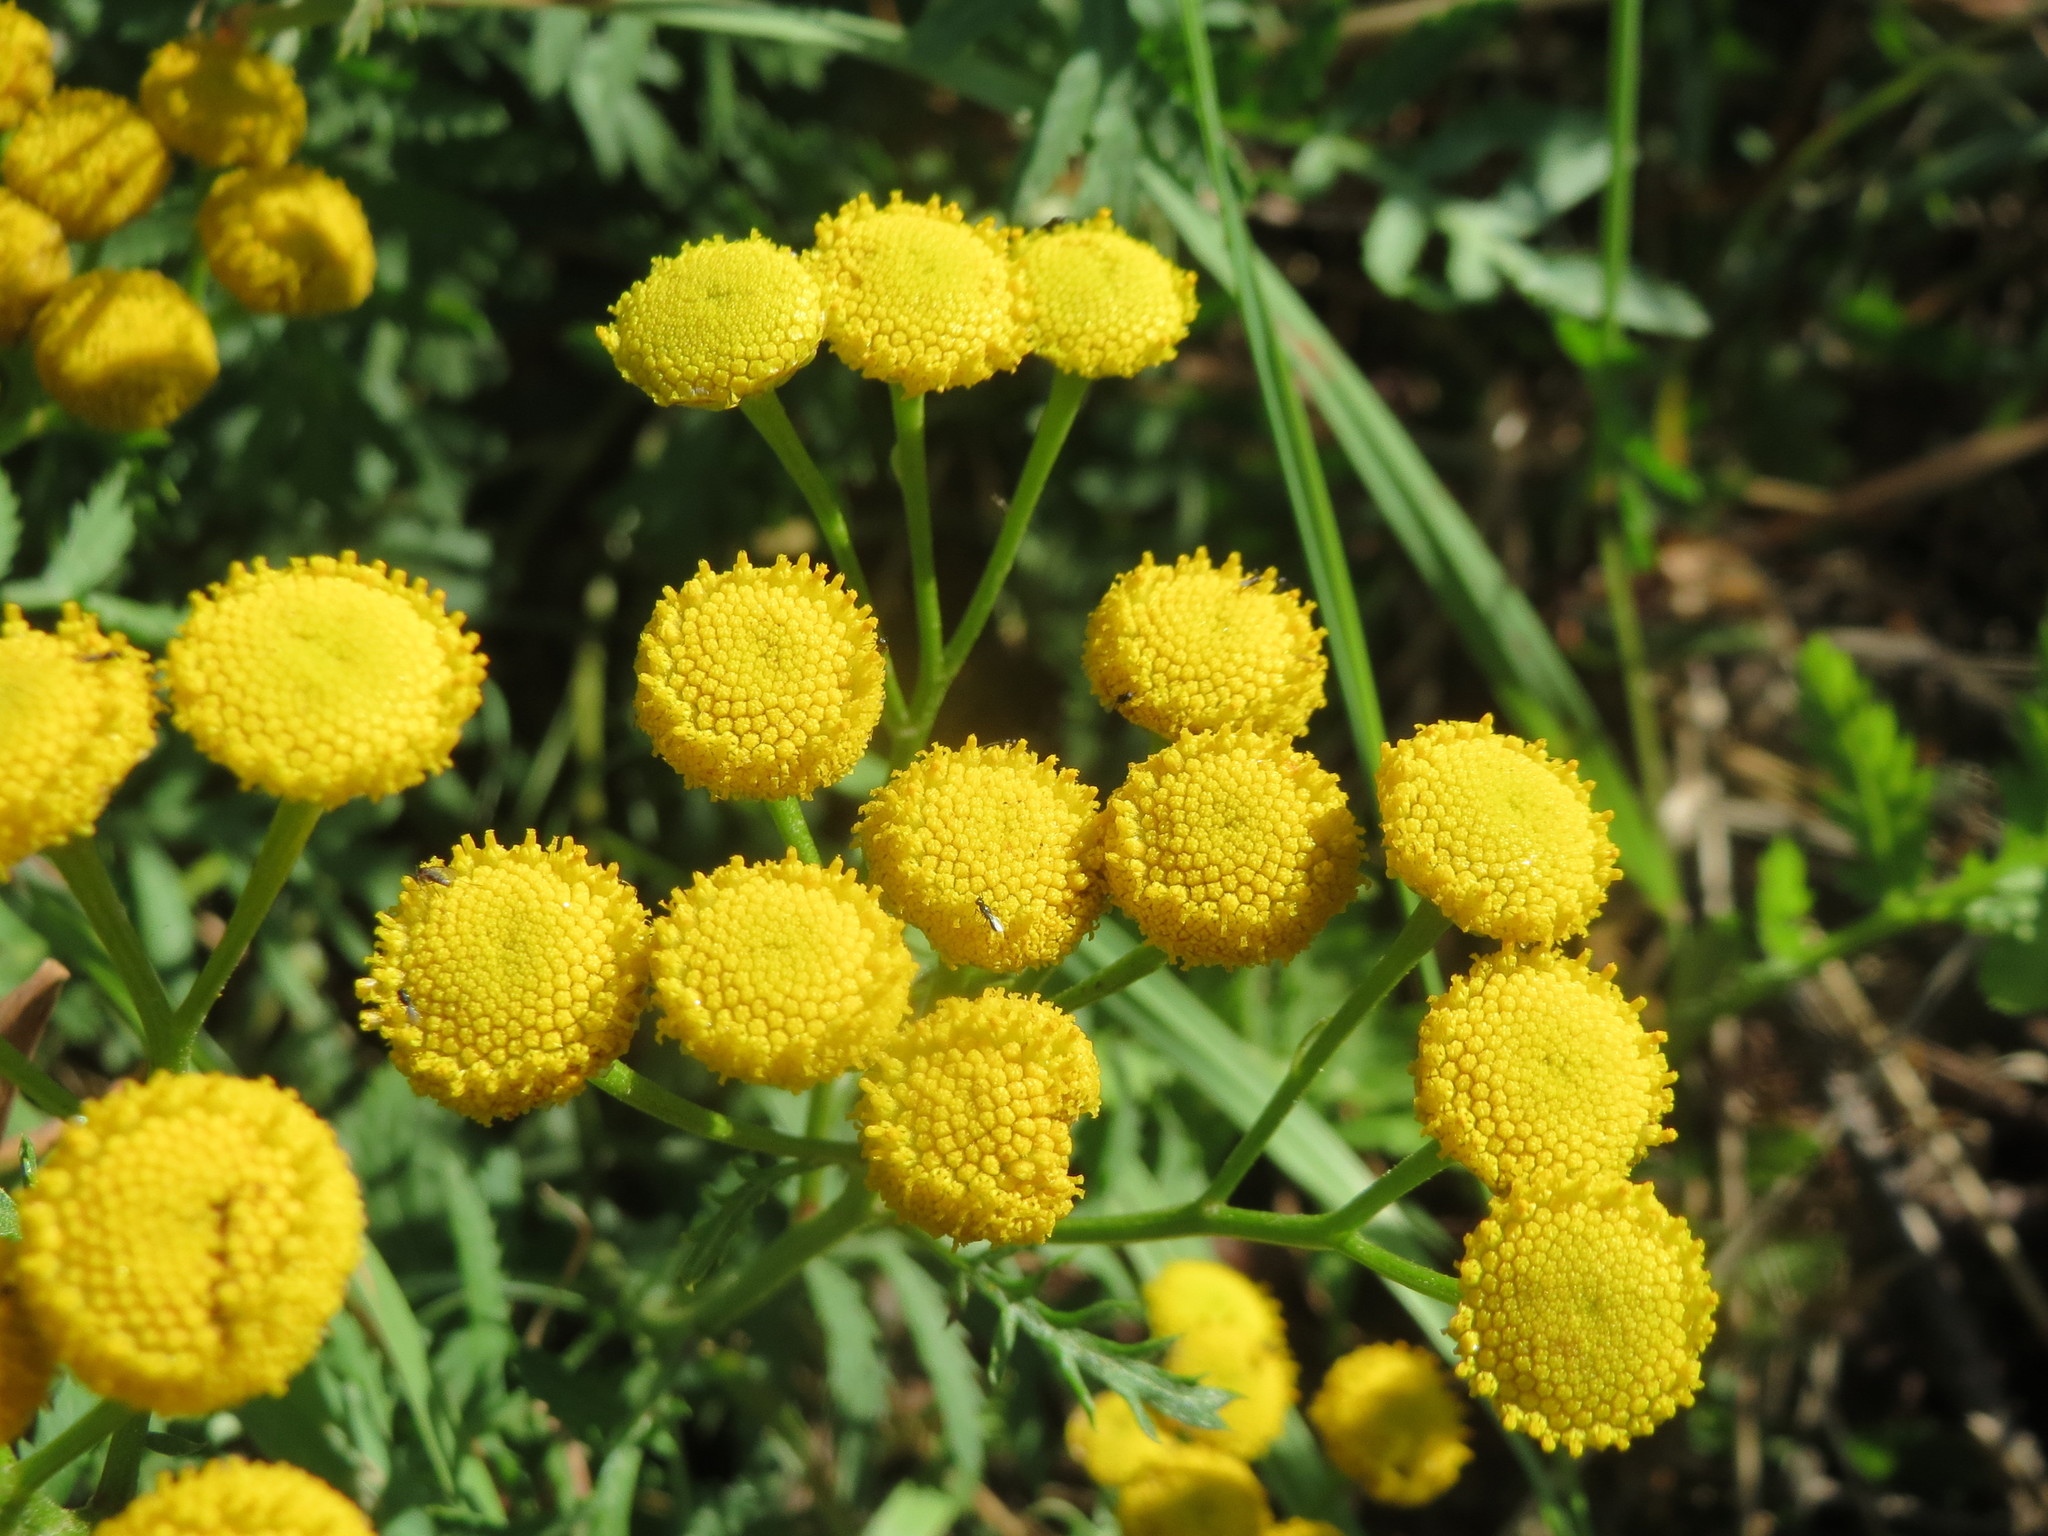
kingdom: Plantae
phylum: Tracheophyta
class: Magnoliopsida
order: Asterales
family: Asteraceae
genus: Tanacetum
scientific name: Tanacetum vulgare
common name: Common tansy
